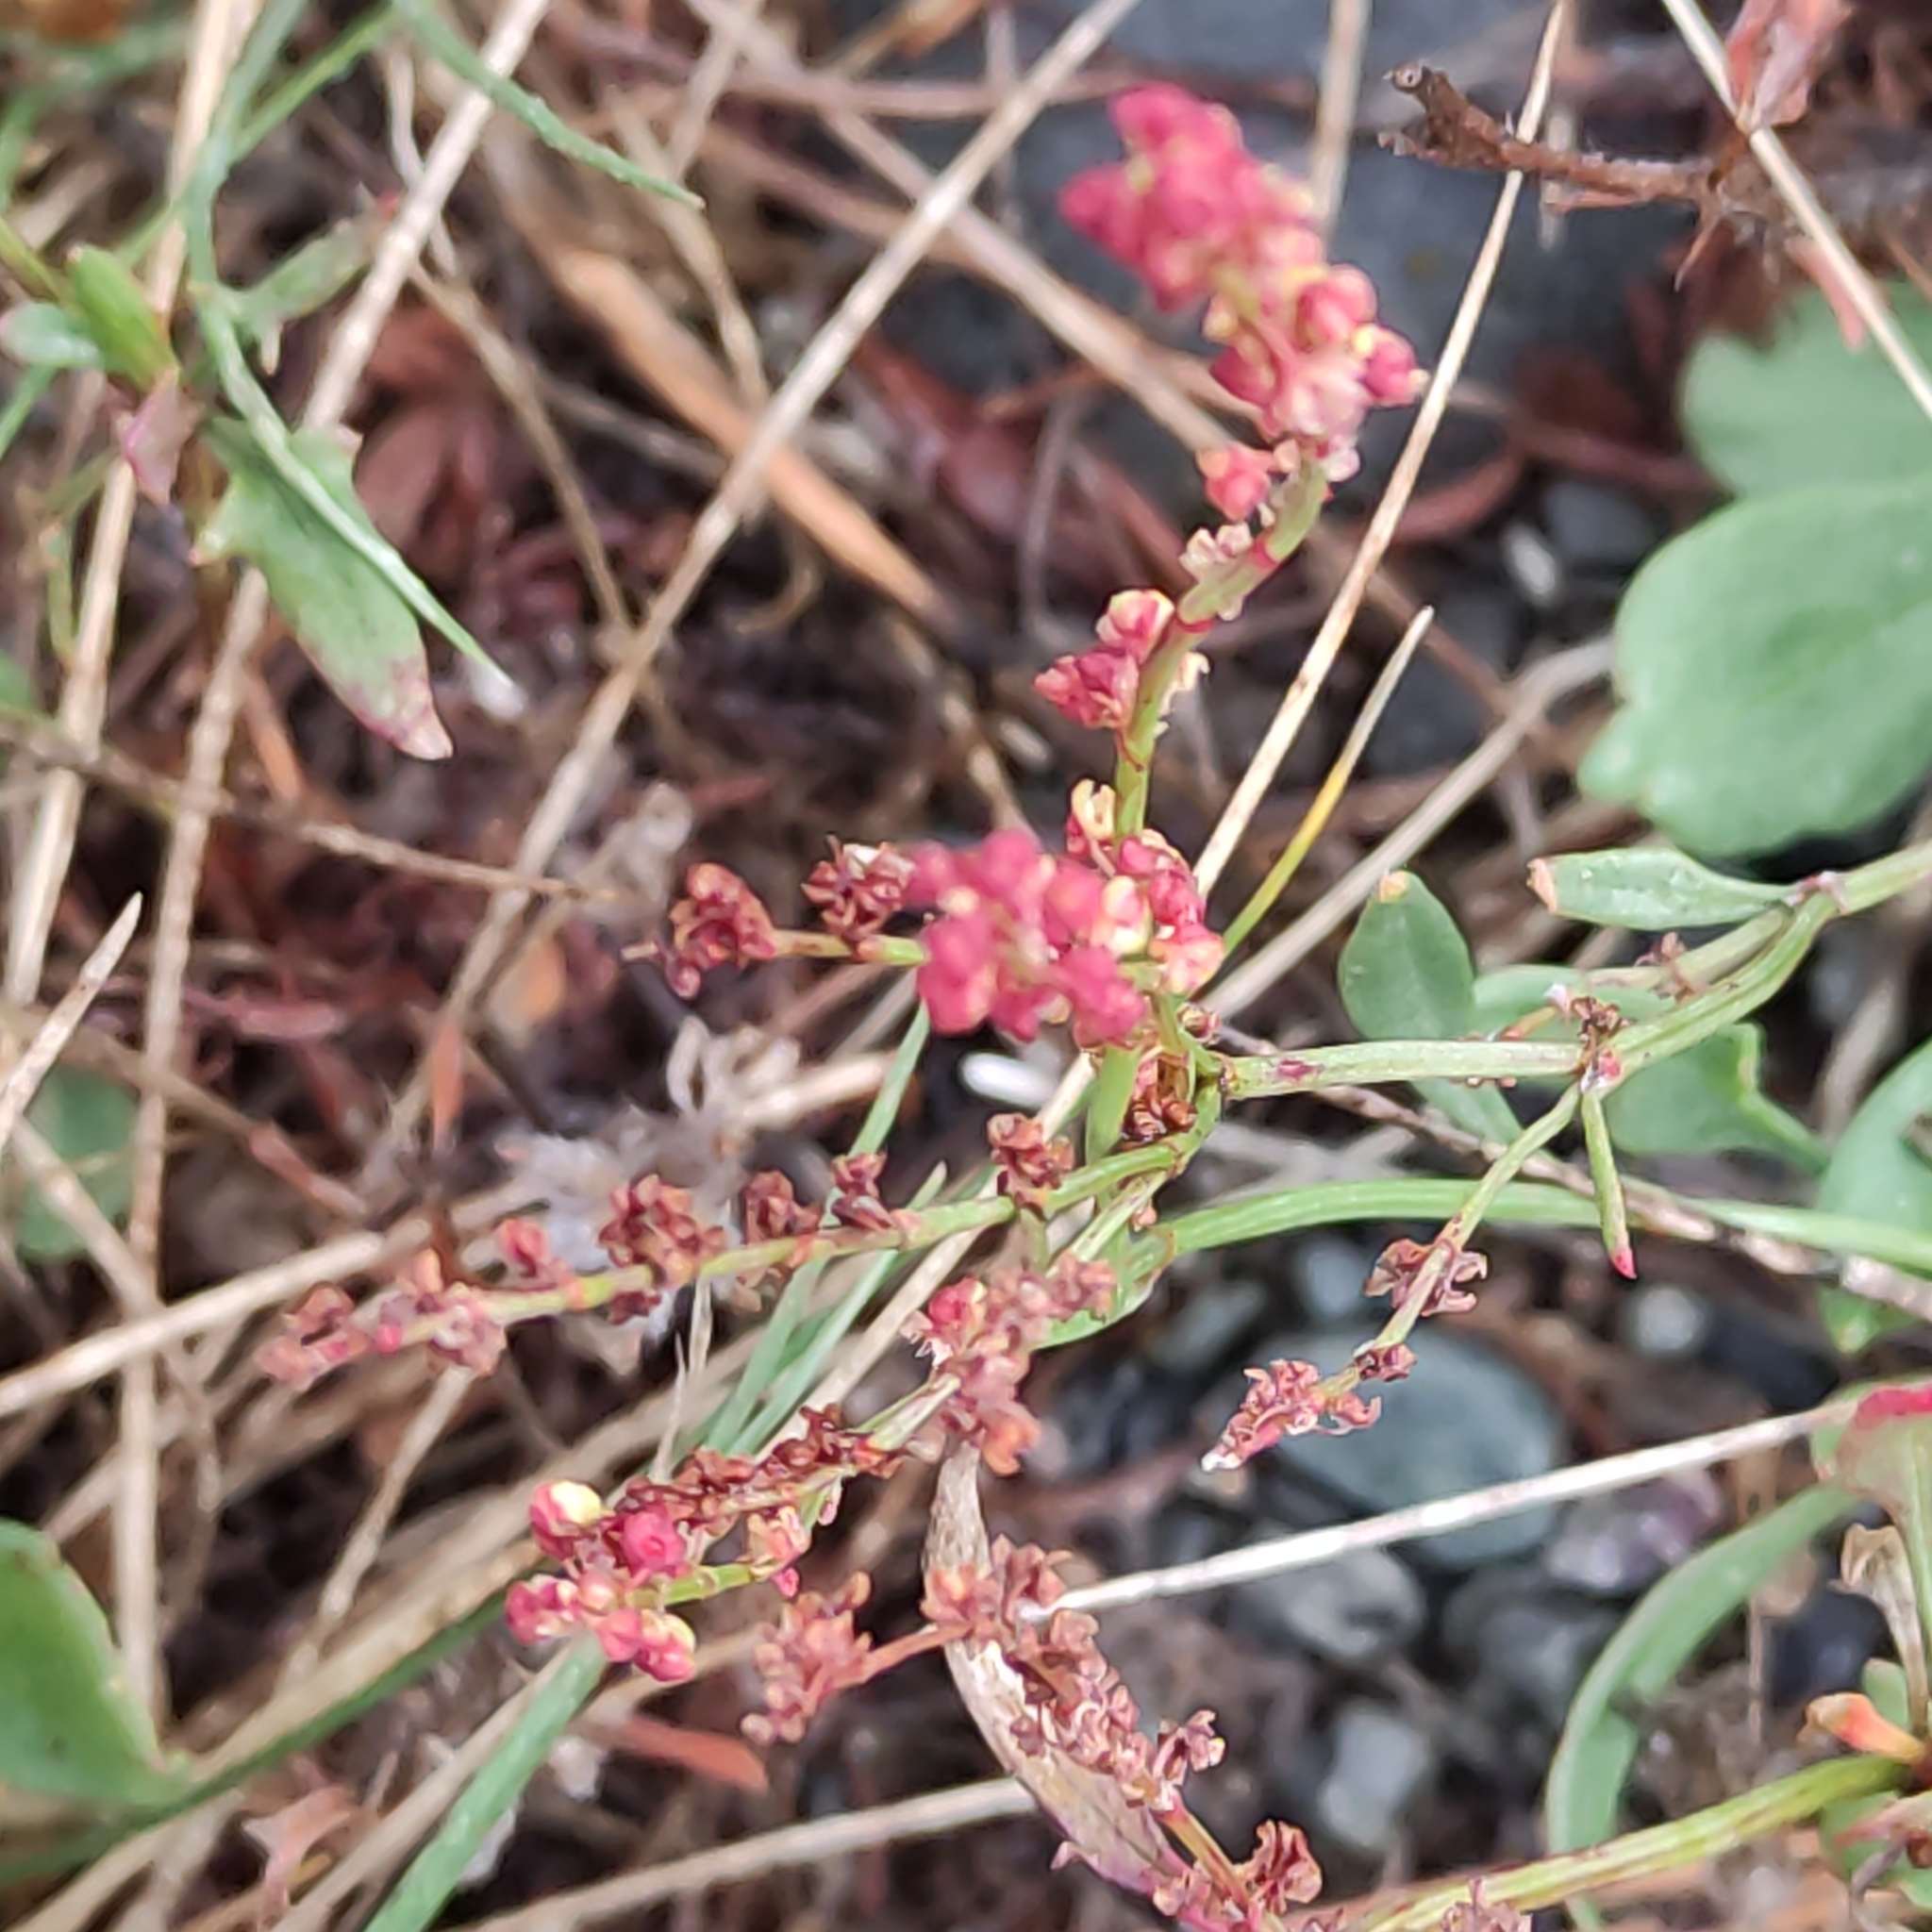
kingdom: Plantae
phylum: Tracheophyta
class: Magnoliopsida
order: Caryophyllales
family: Polygonaceae
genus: Rumex
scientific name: Rumex acetosella
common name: Common sheep sorrel
